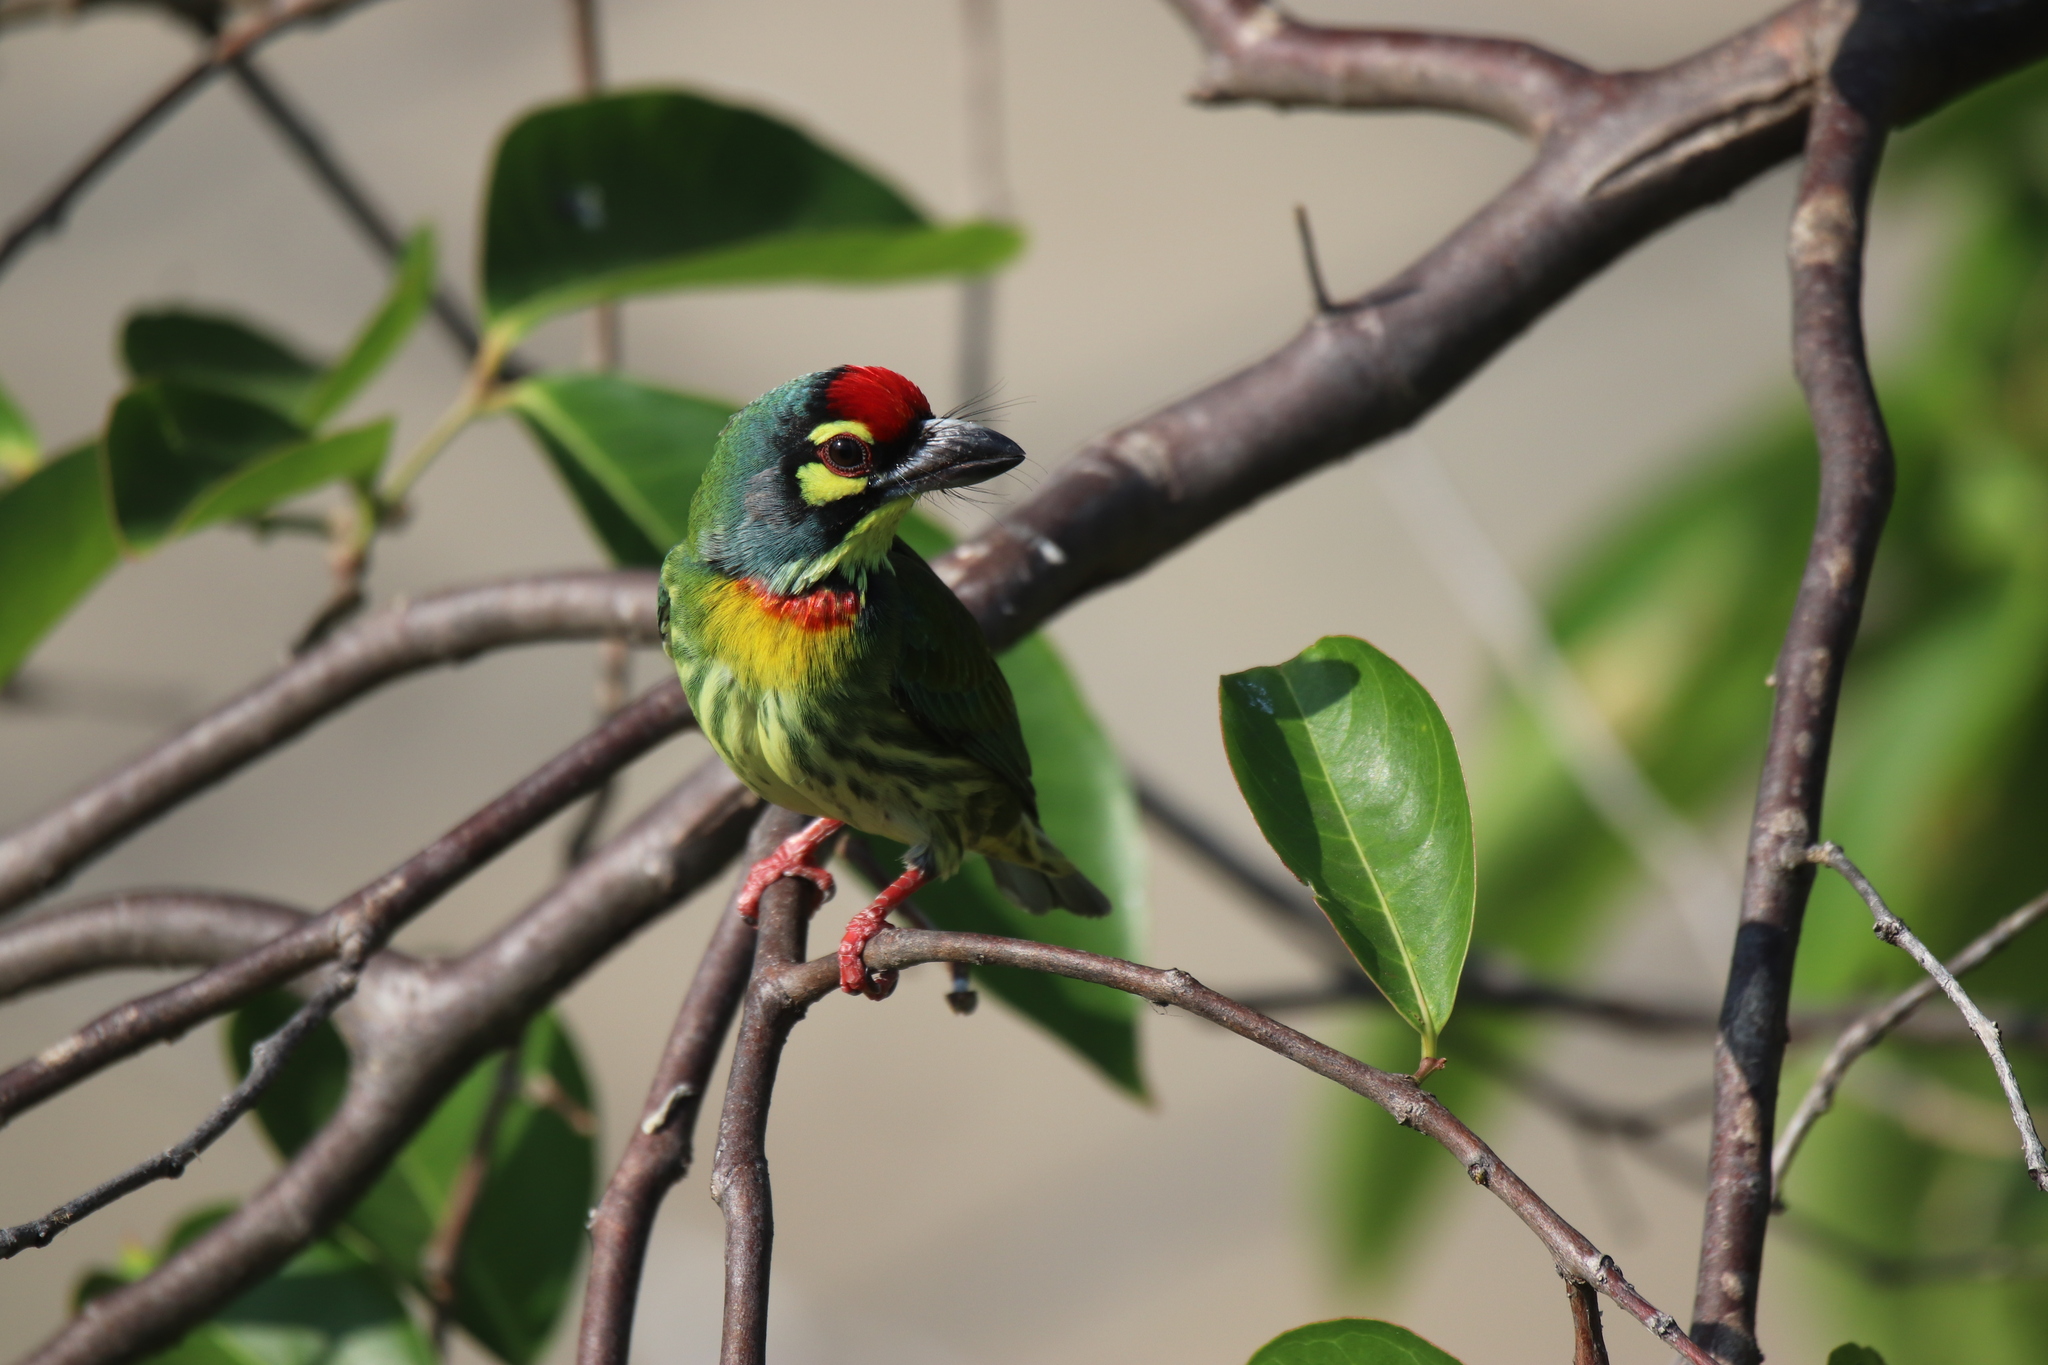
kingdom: Animalia
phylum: Chordata
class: Aves
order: Piciformes
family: Megalaimidae
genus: Psilopogon
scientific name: Psilopogon haemacephalus
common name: Coppersmith barbet
